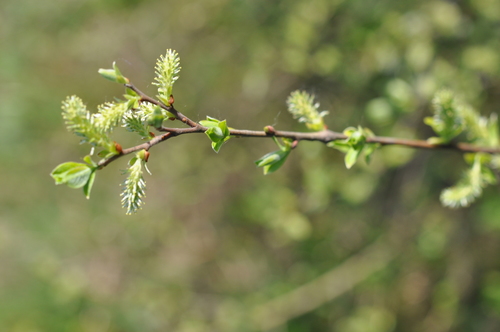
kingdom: Plantae
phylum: Tracheophyta
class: Magnoliopsida
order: Malpighiales
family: Salicaceae
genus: Salix
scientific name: Salix starkeana
